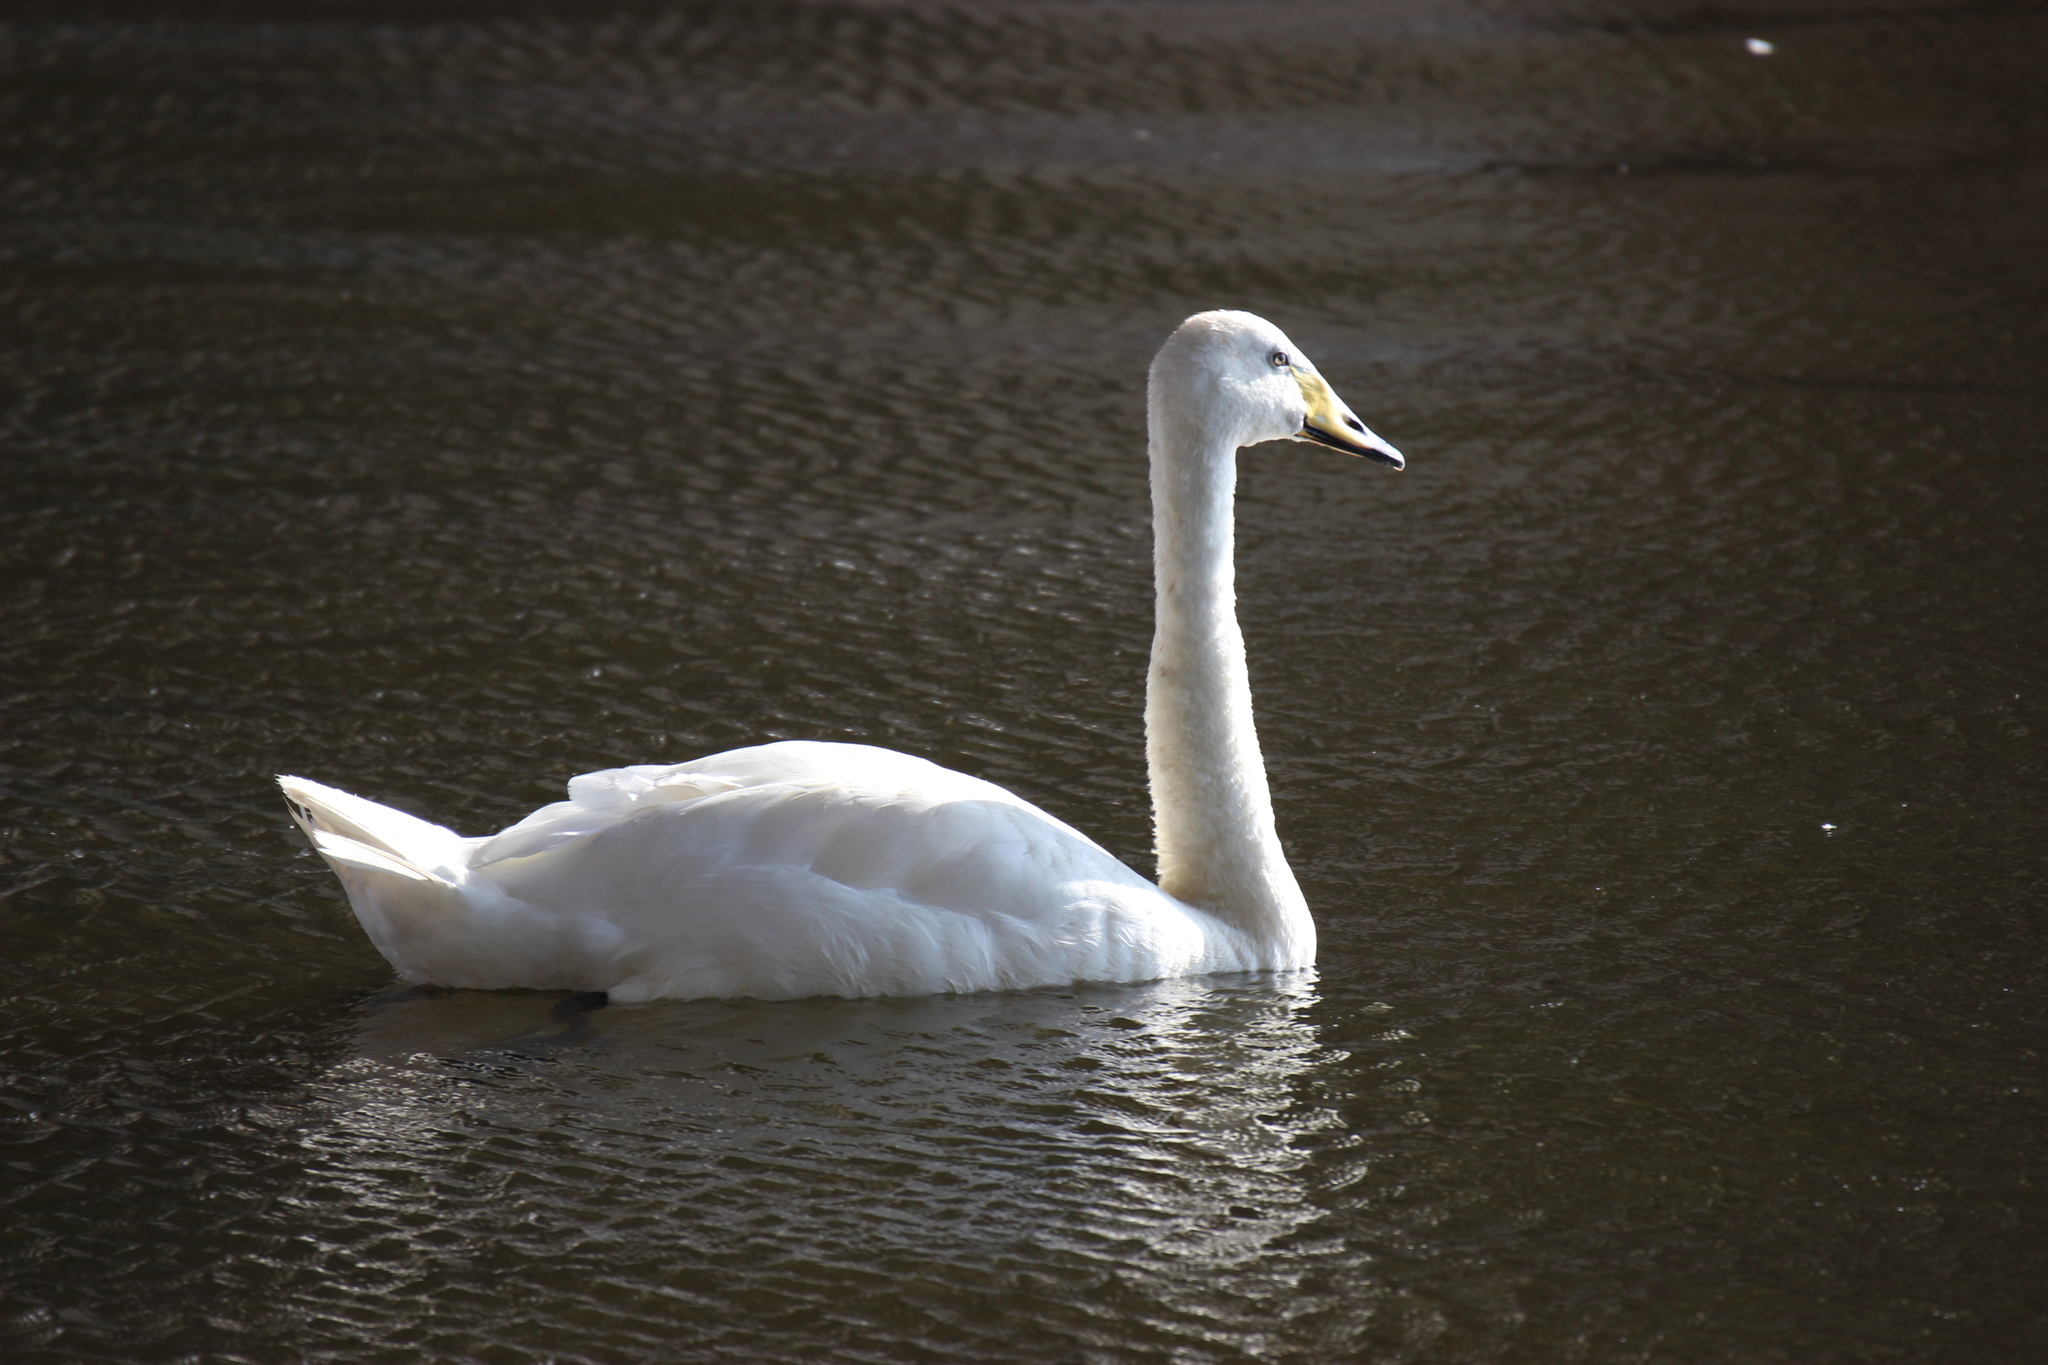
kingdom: Animalia
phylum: Chordata
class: Aves
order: Anseriformes
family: Anatidae
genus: Cygnus
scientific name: Cygnus cygnus
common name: Whooper swan
